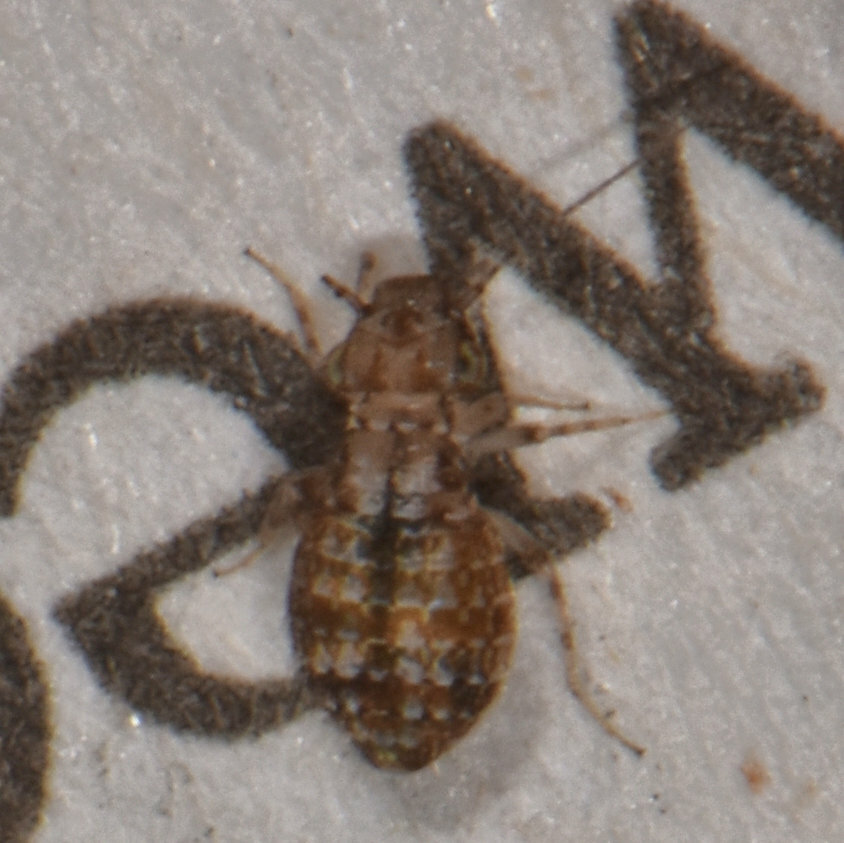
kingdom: Animalia
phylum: Arthropoda
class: Insecta
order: Psocodea
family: Trogiidae
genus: Cerobasis
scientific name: Cerobasis guestfalica
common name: Book lice
